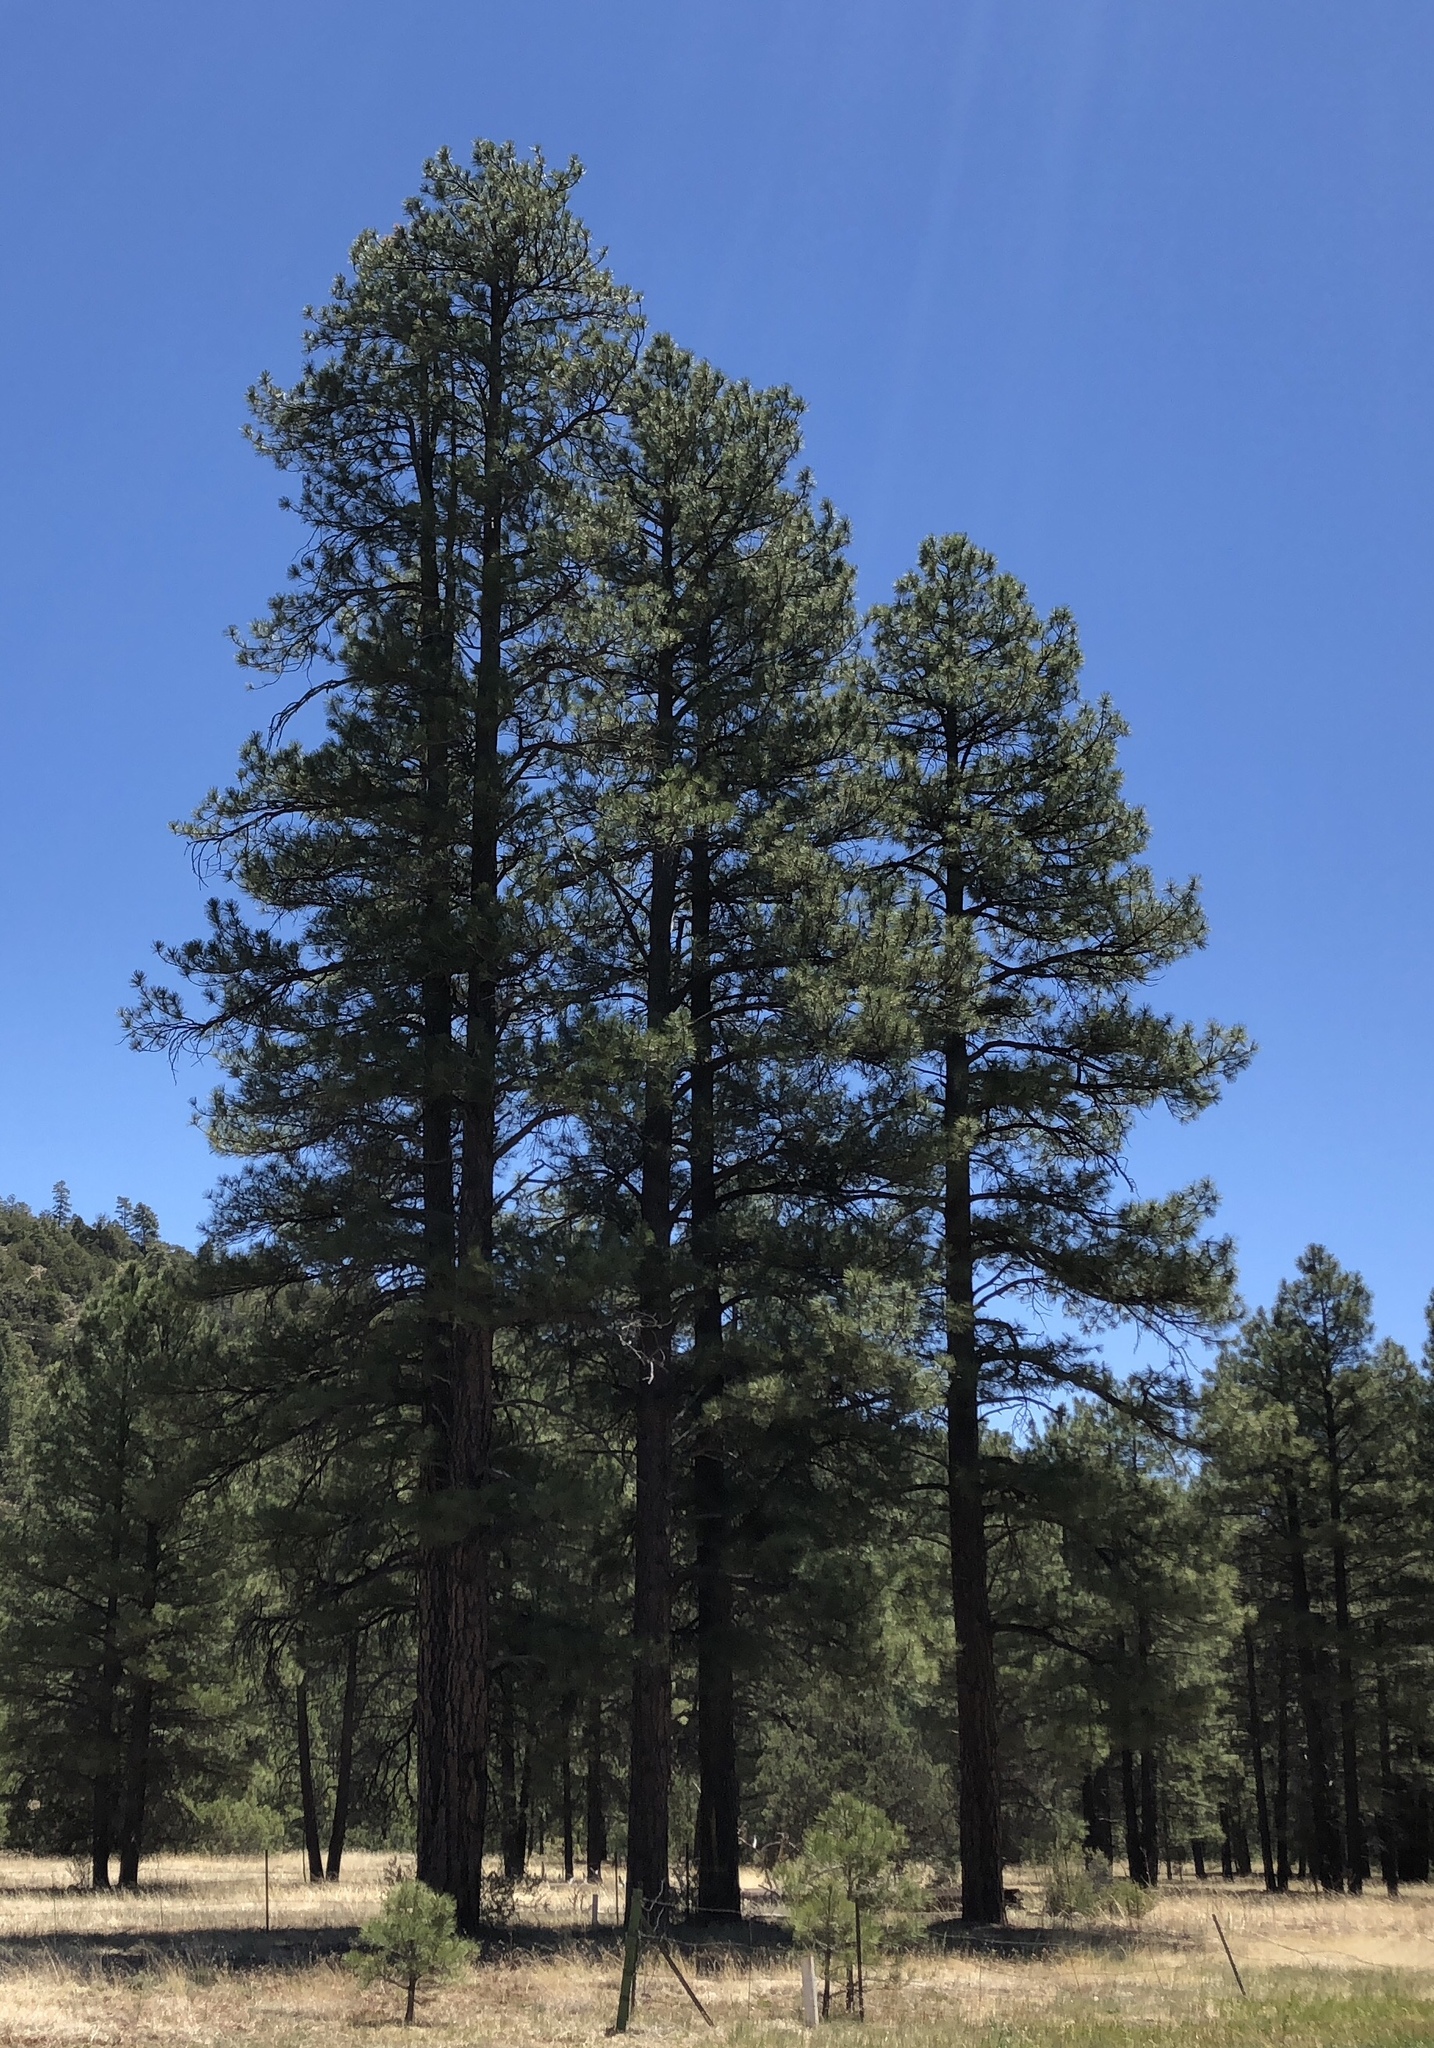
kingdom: Plantae
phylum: Tracheophyta
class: Pinopsida
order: Pinales
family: Pinaceae
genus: Pinus
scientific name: Pinus ponderosa
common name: Western yellow-pine
